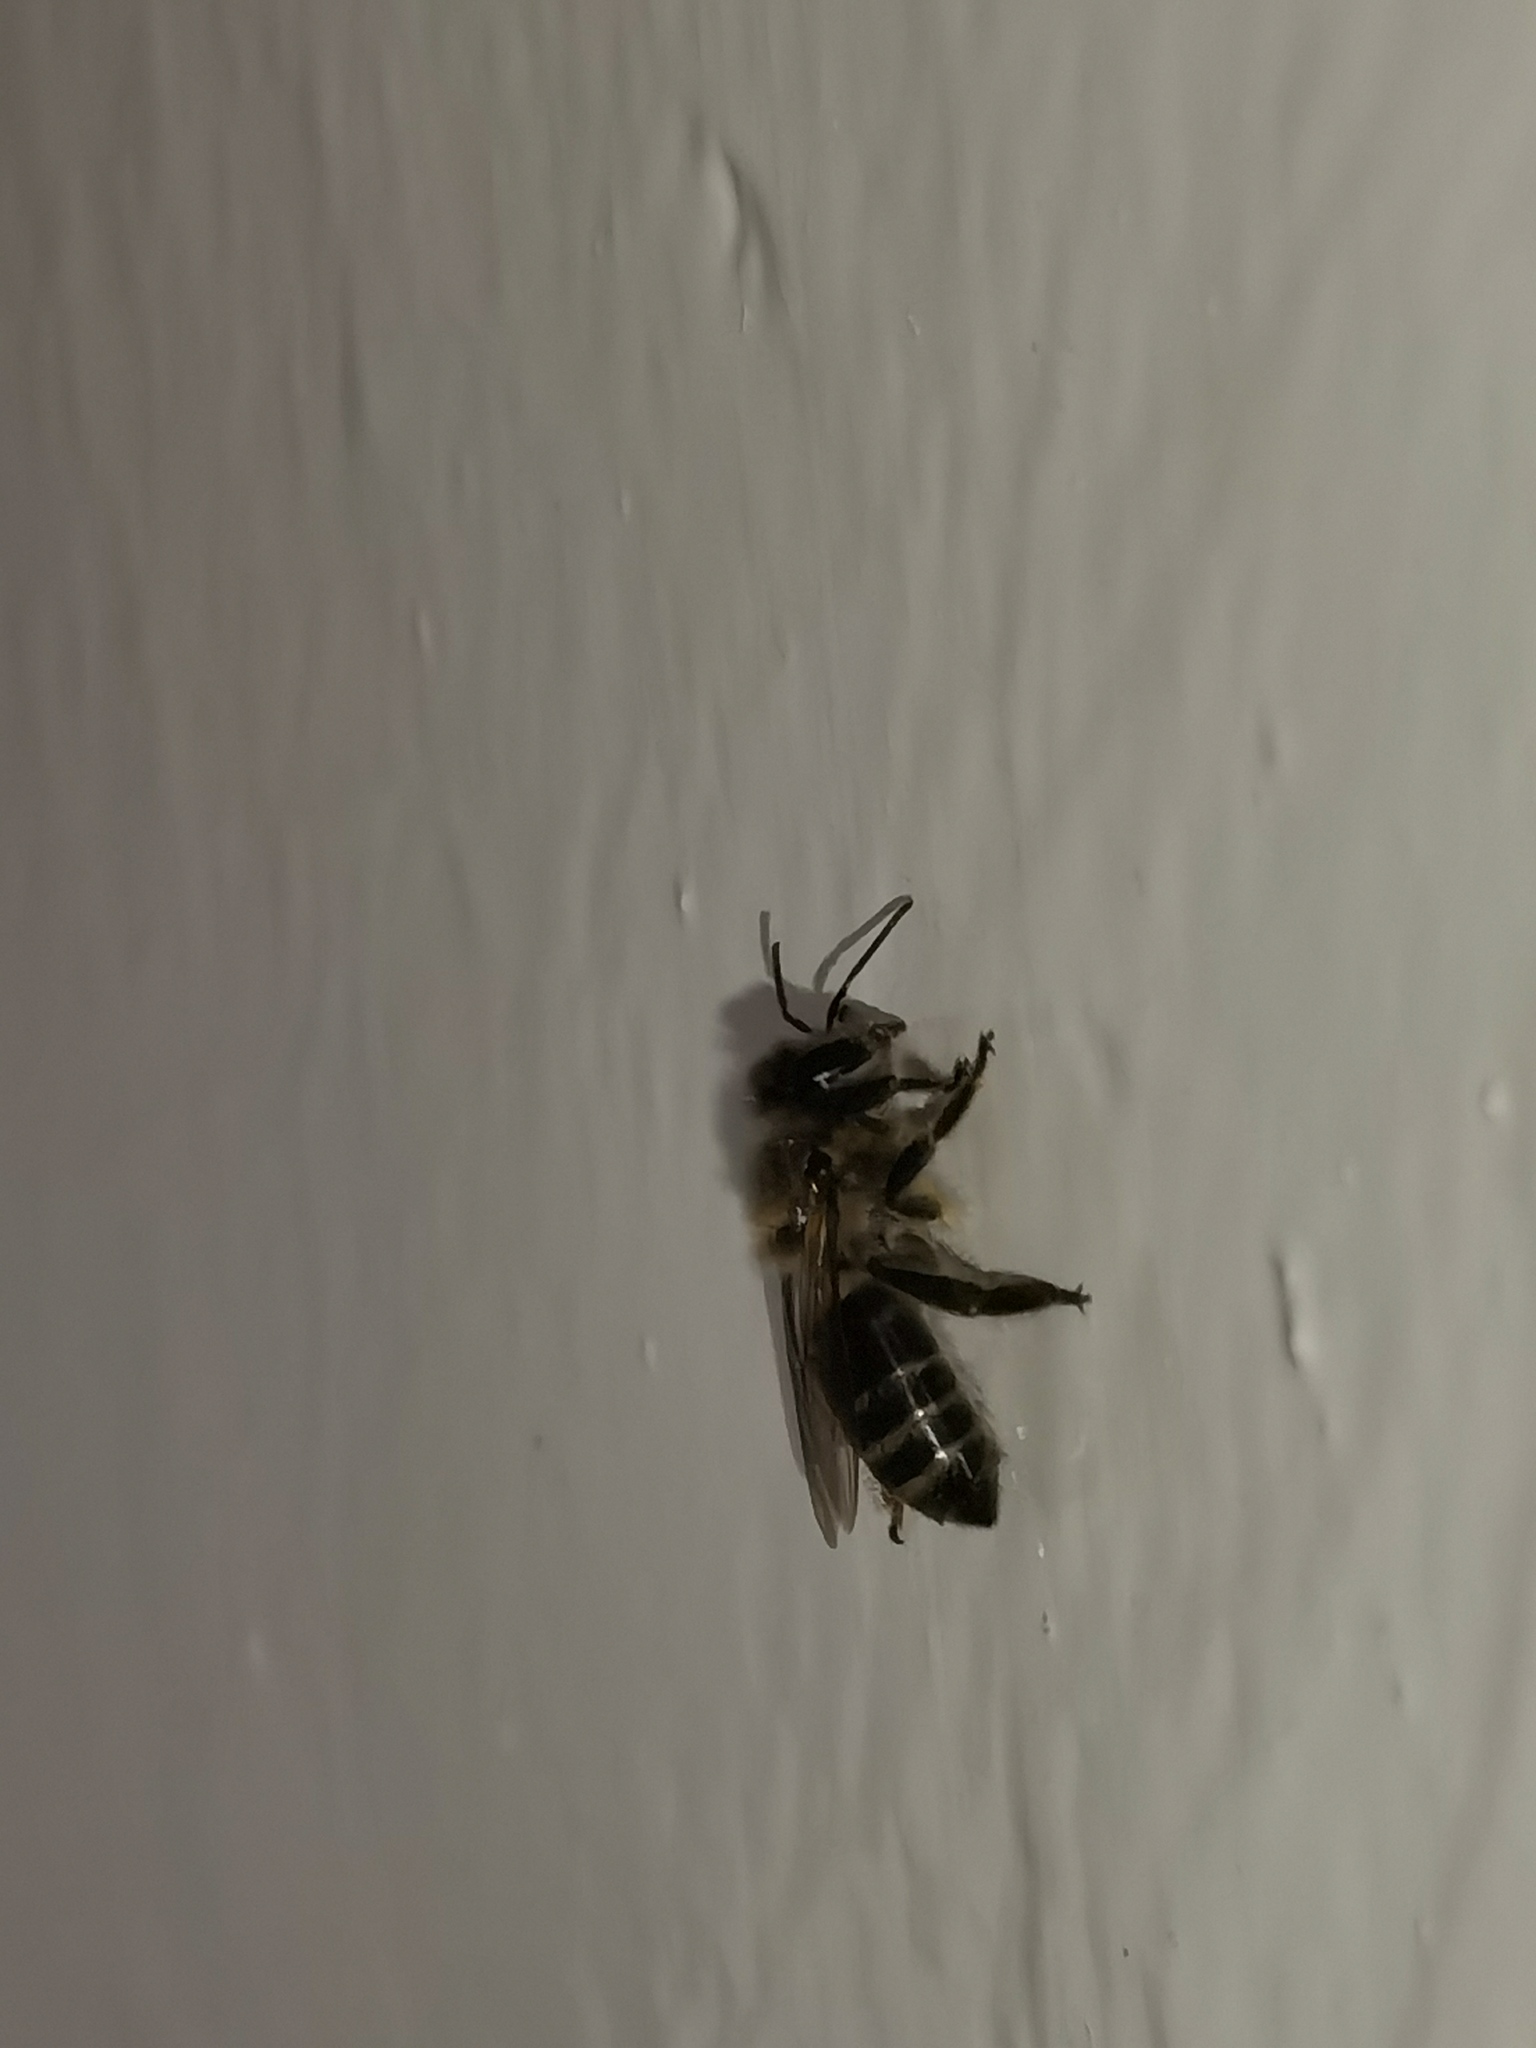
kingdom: Animalia
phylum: Arthropoda
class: Insecta
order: Hymenoptera
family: Apidae
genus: Apis
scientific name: Apis mellifera
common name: Honey bee
